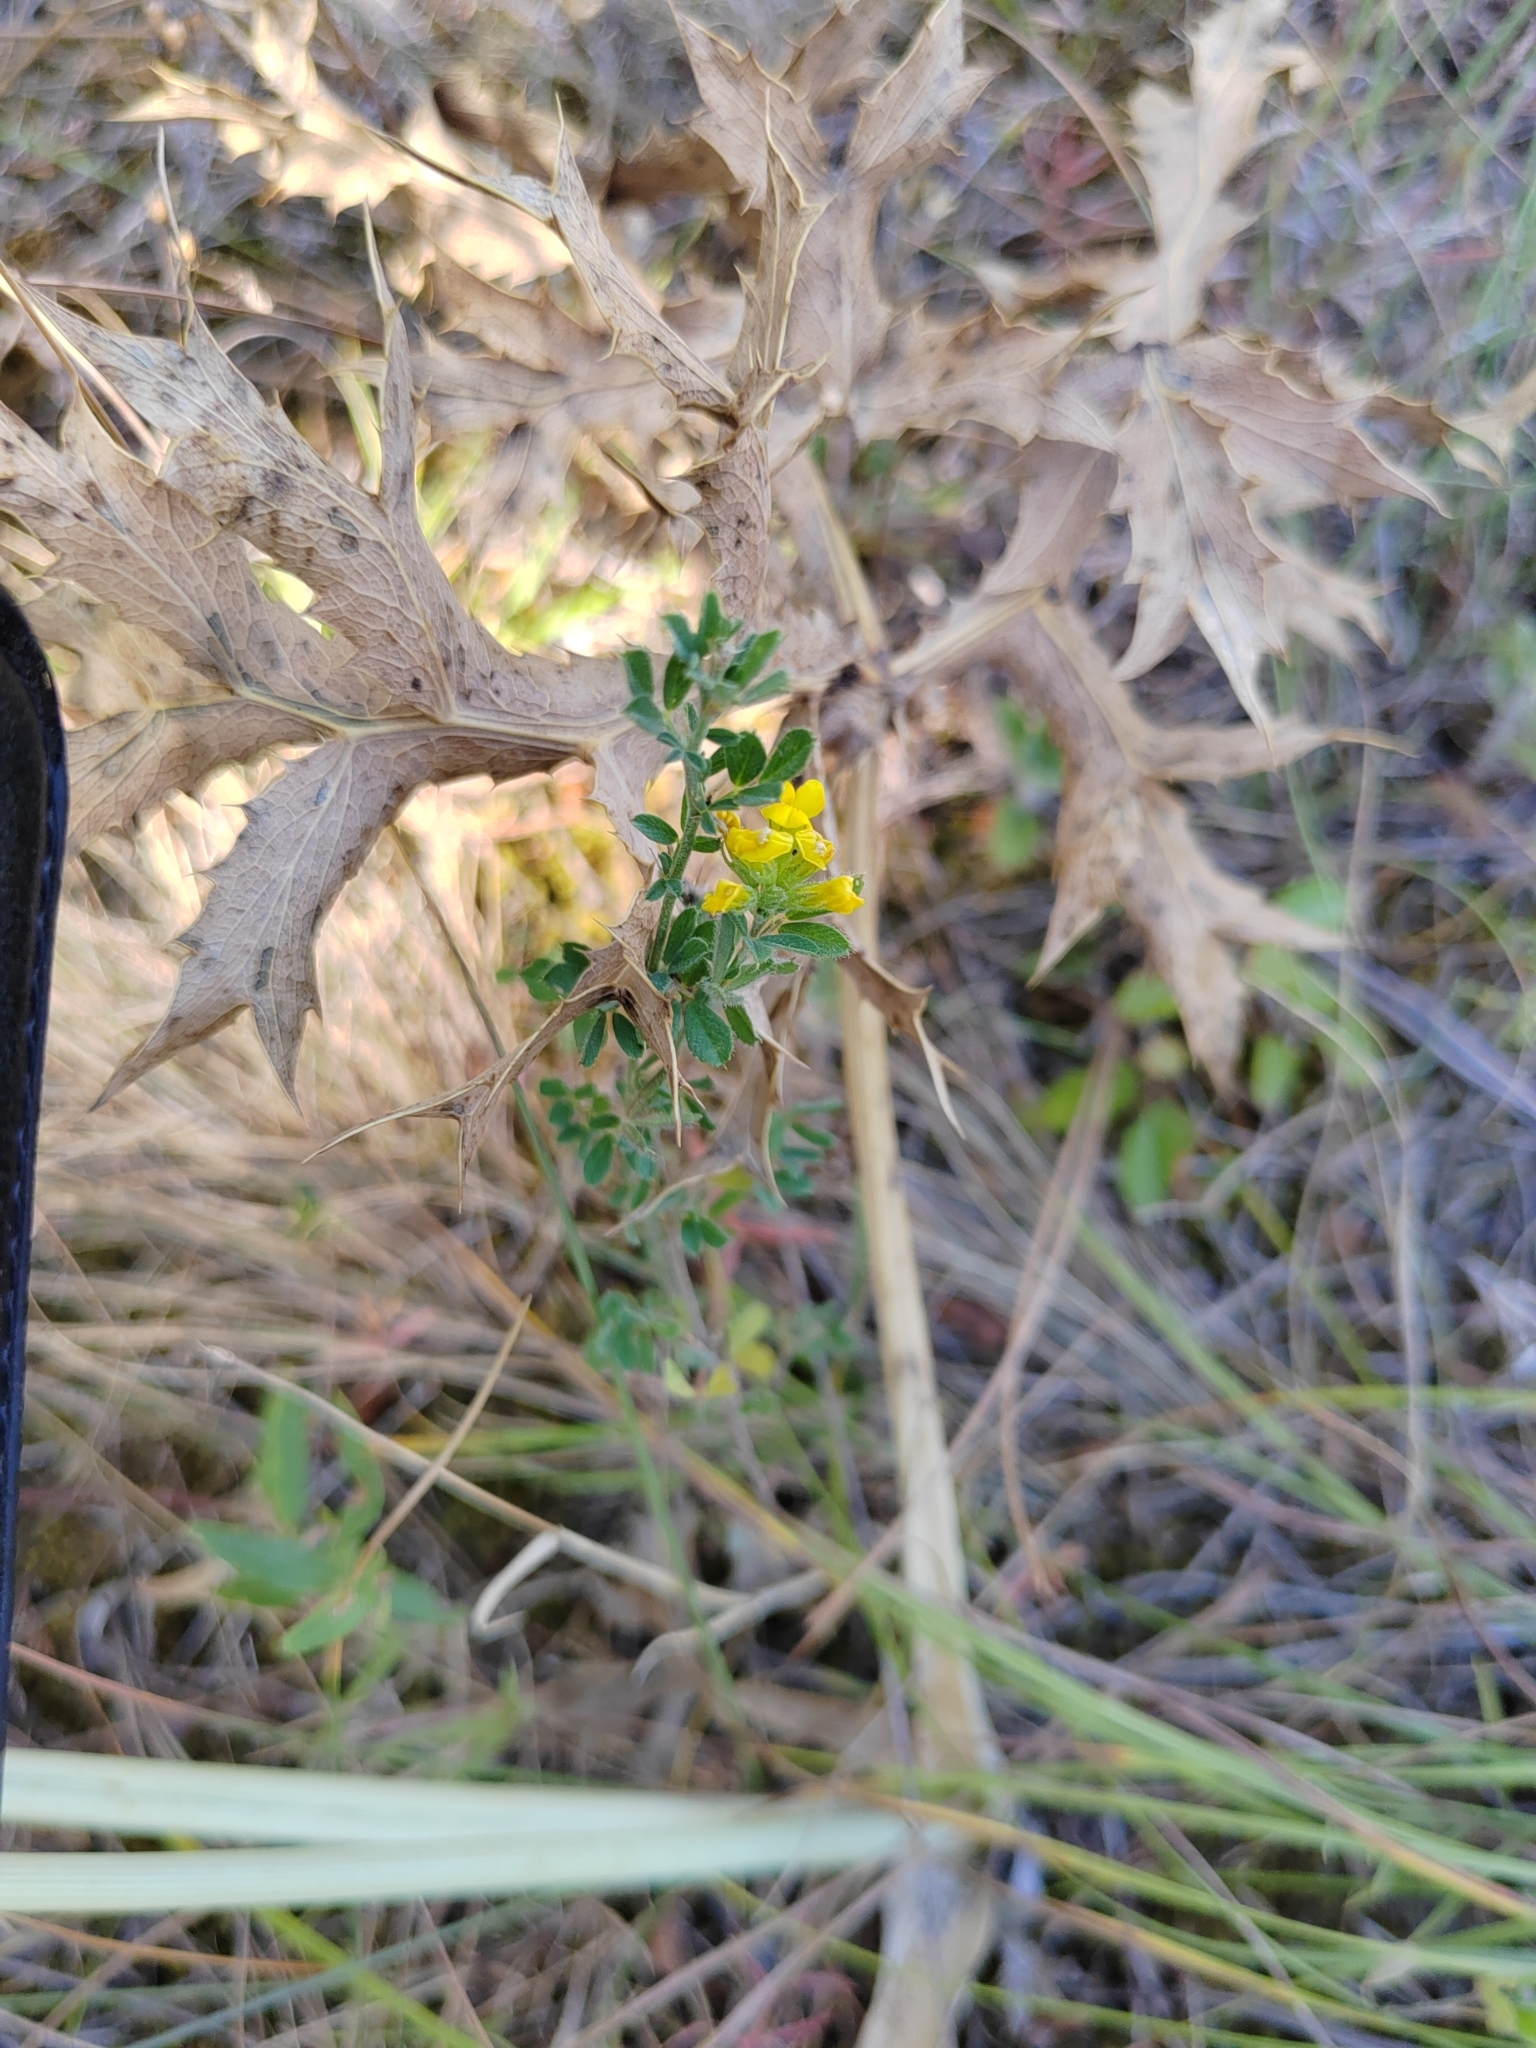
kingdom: Plantae
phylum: Tracheophyta
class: Magnoliopsida
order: Fabales
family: Fabaceae
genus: Medicago
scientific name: Medicago falcata
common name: Sickle medick
